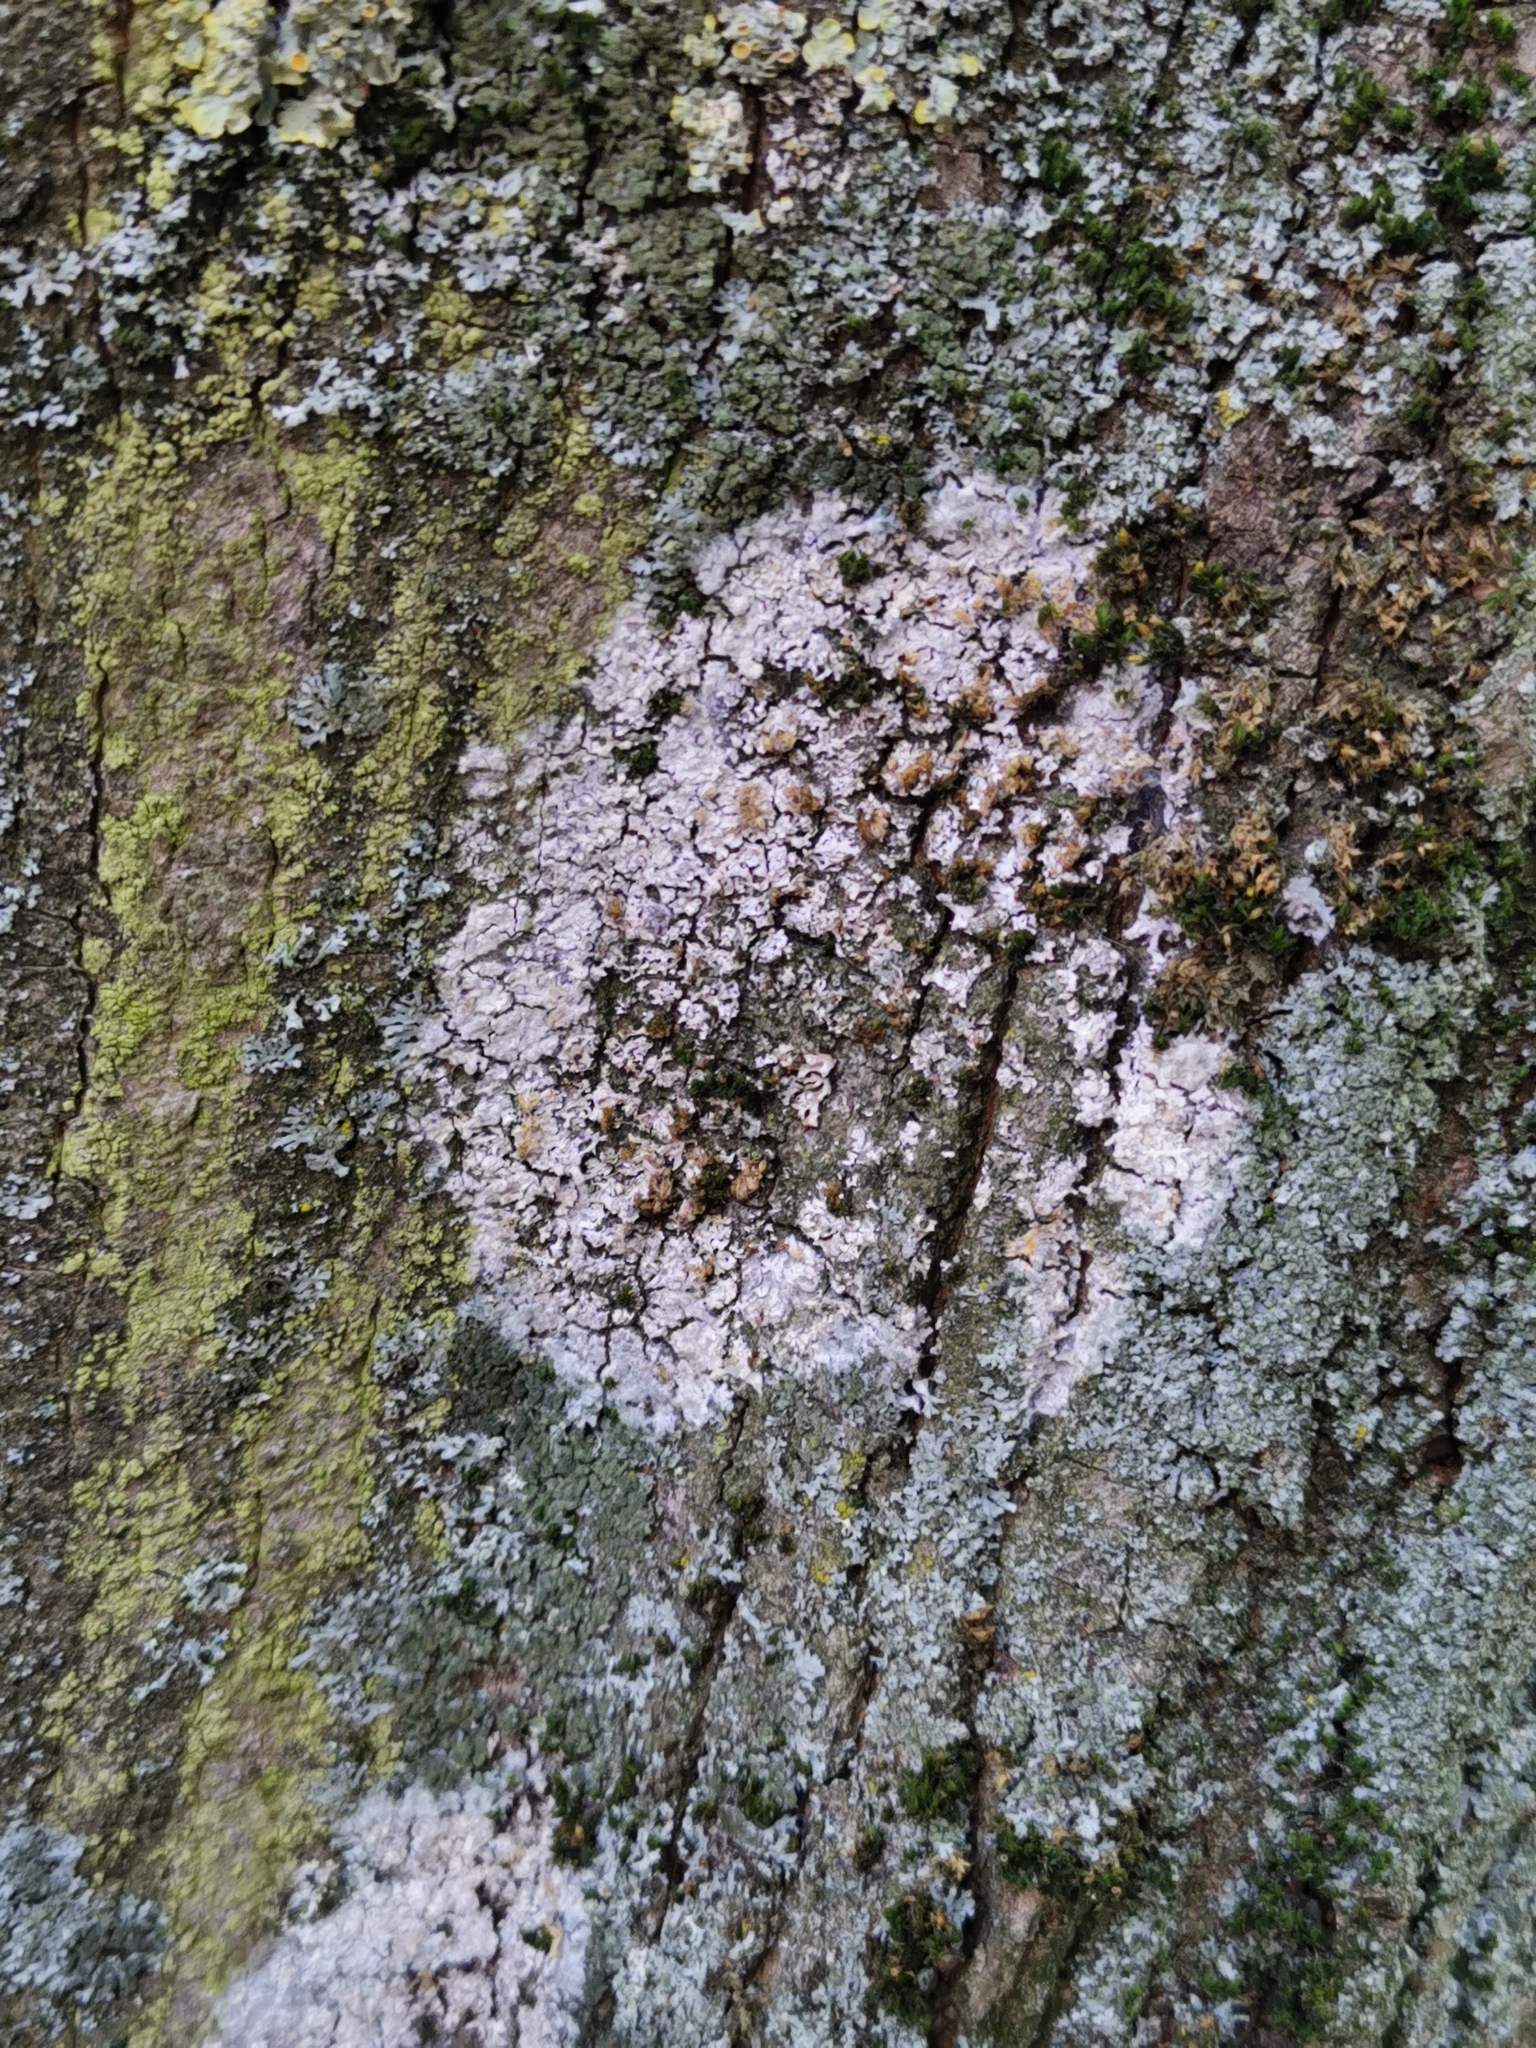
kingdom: Fungi
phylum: Basidiomycota
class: Agaricomycetes
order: Atheliales
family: Atheliaceae
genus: Athelia
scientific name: Athelia arachnoidea
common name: Candelabra duster
